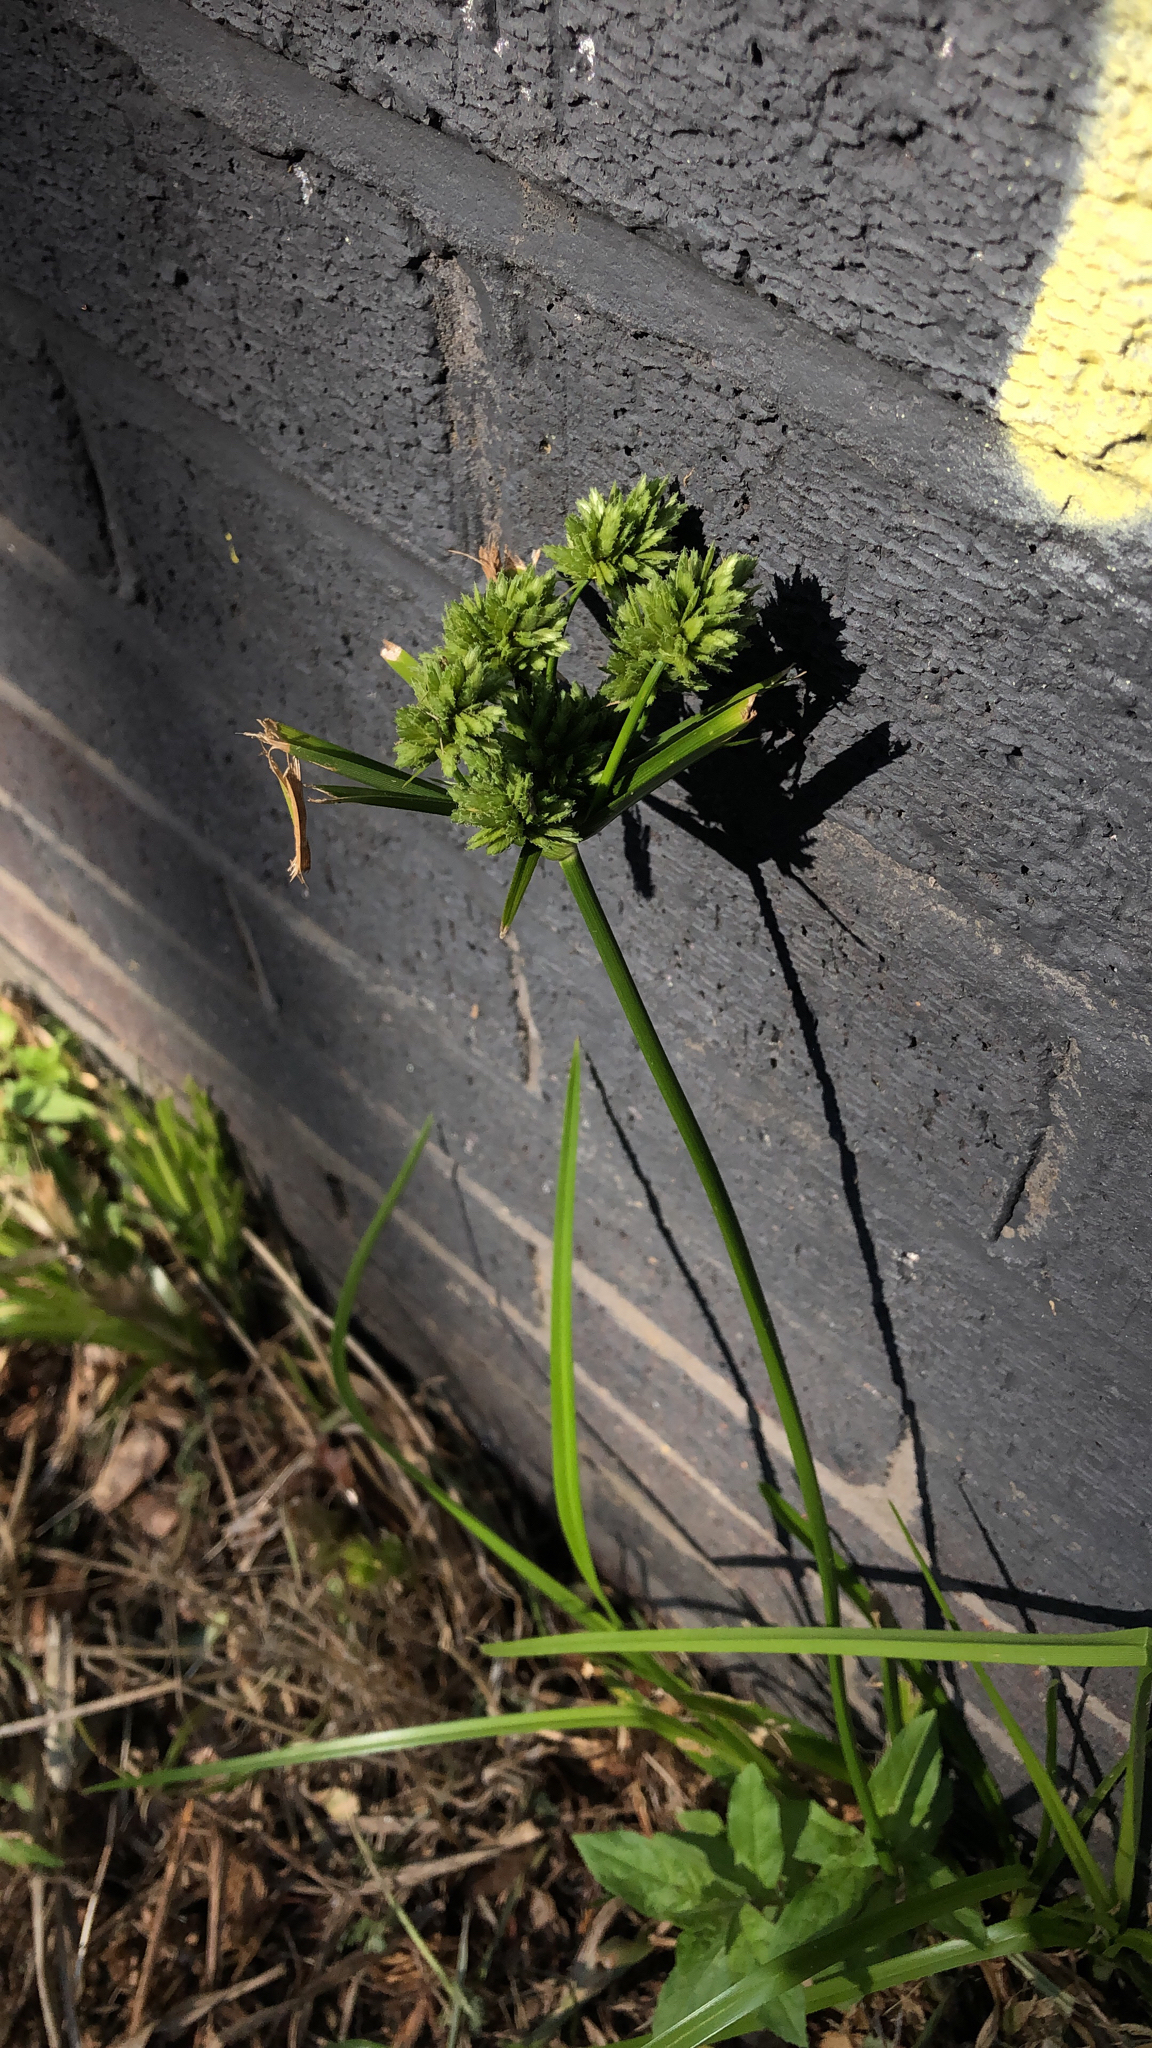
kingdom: Plantae
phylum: Tracheophyta
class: Liliopsida
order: Poales
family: Cyperaceae
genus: Cyperus
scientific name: Cyperus eragrostis
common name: Tall flatsedge
